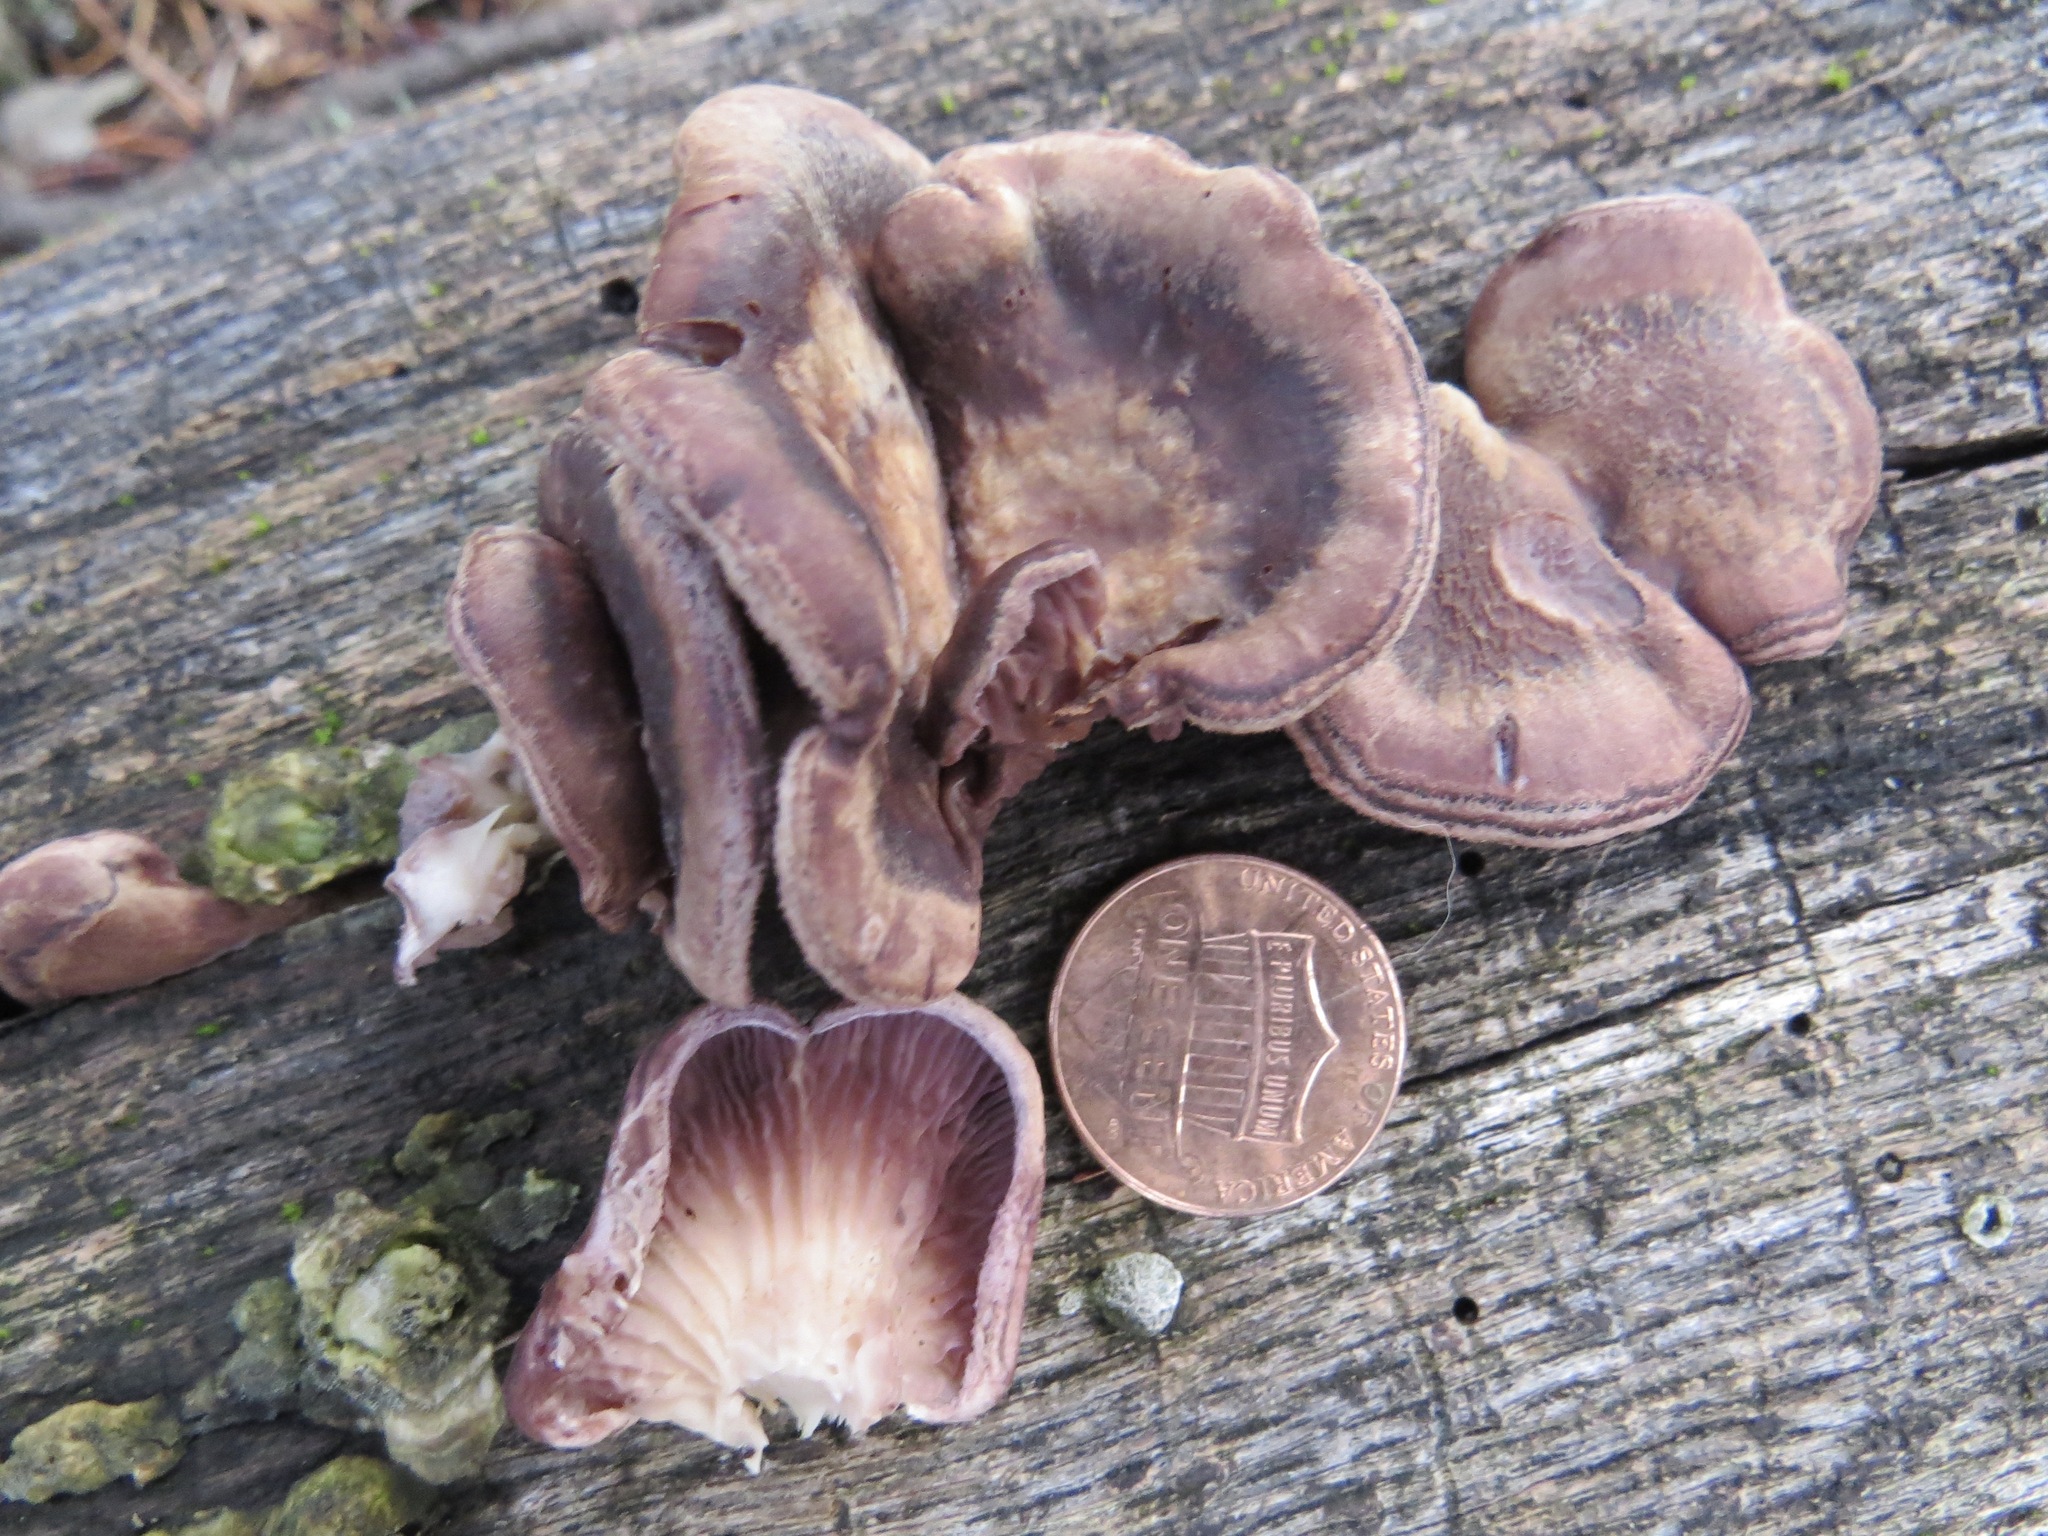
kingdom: Fungi
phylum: Basidiomycota
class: Agaricomycetes
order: Polyporales
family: Panaceae
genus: Panus
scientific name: Panus conchatus
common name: Lilac oysterling
